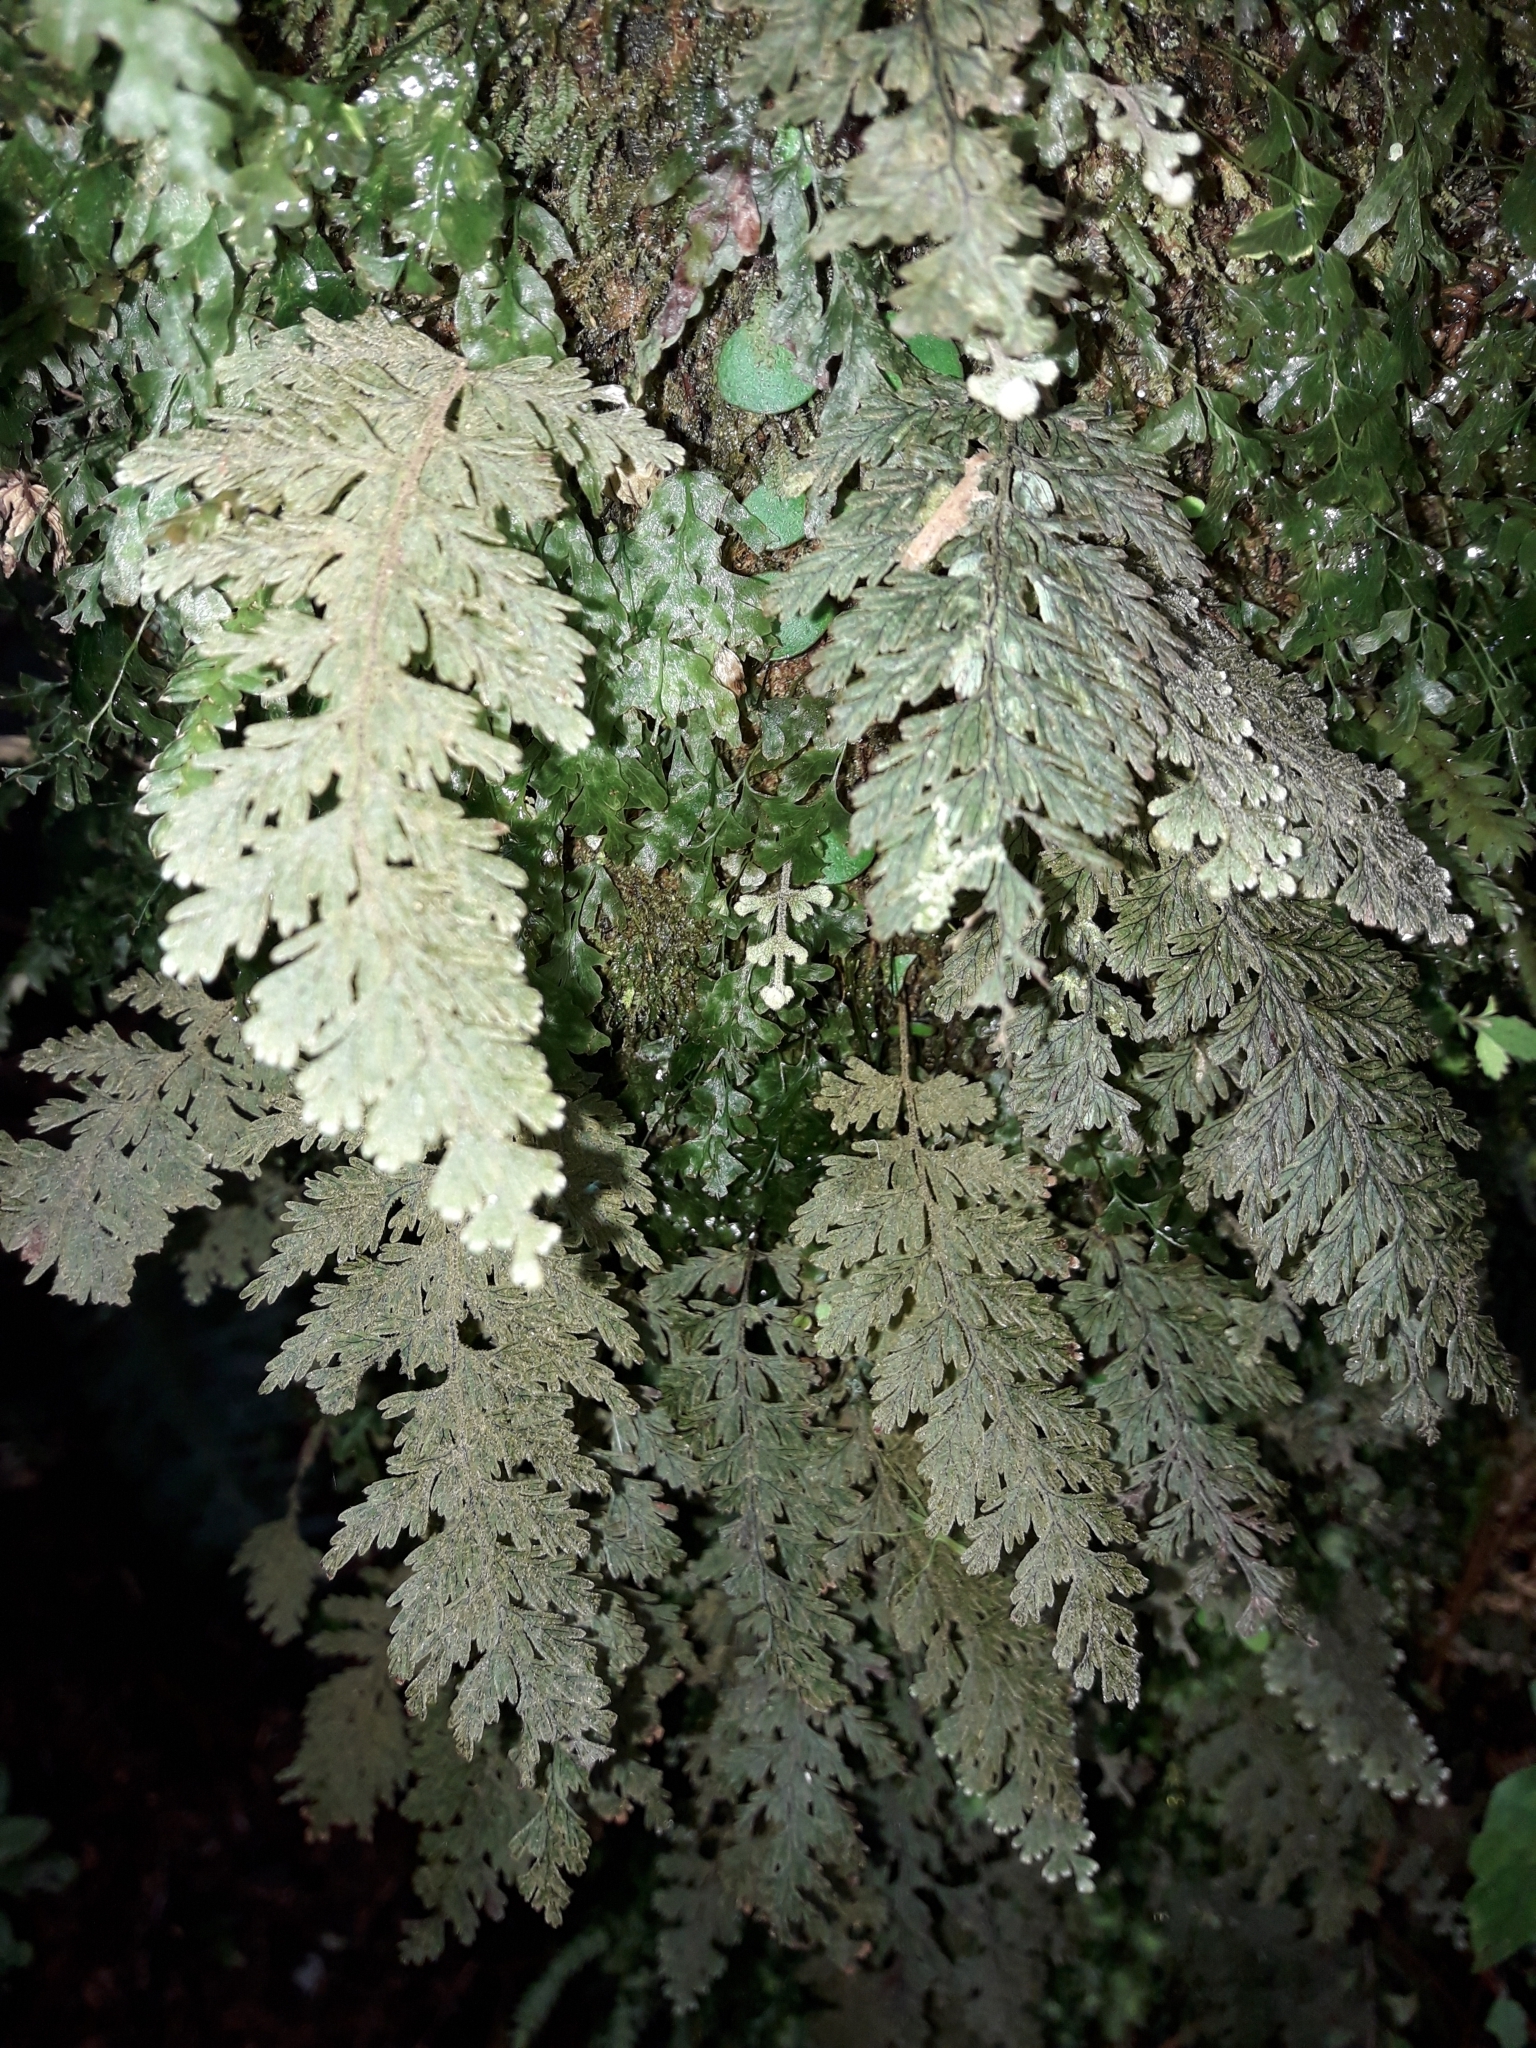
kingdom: Plantae
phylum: Tracheophyta
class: Polypodiopsida
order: Hymenophyllales
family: Hymenophyllaceae
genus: Hymenophyllum
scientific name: Hymenophyllum frankliniae
